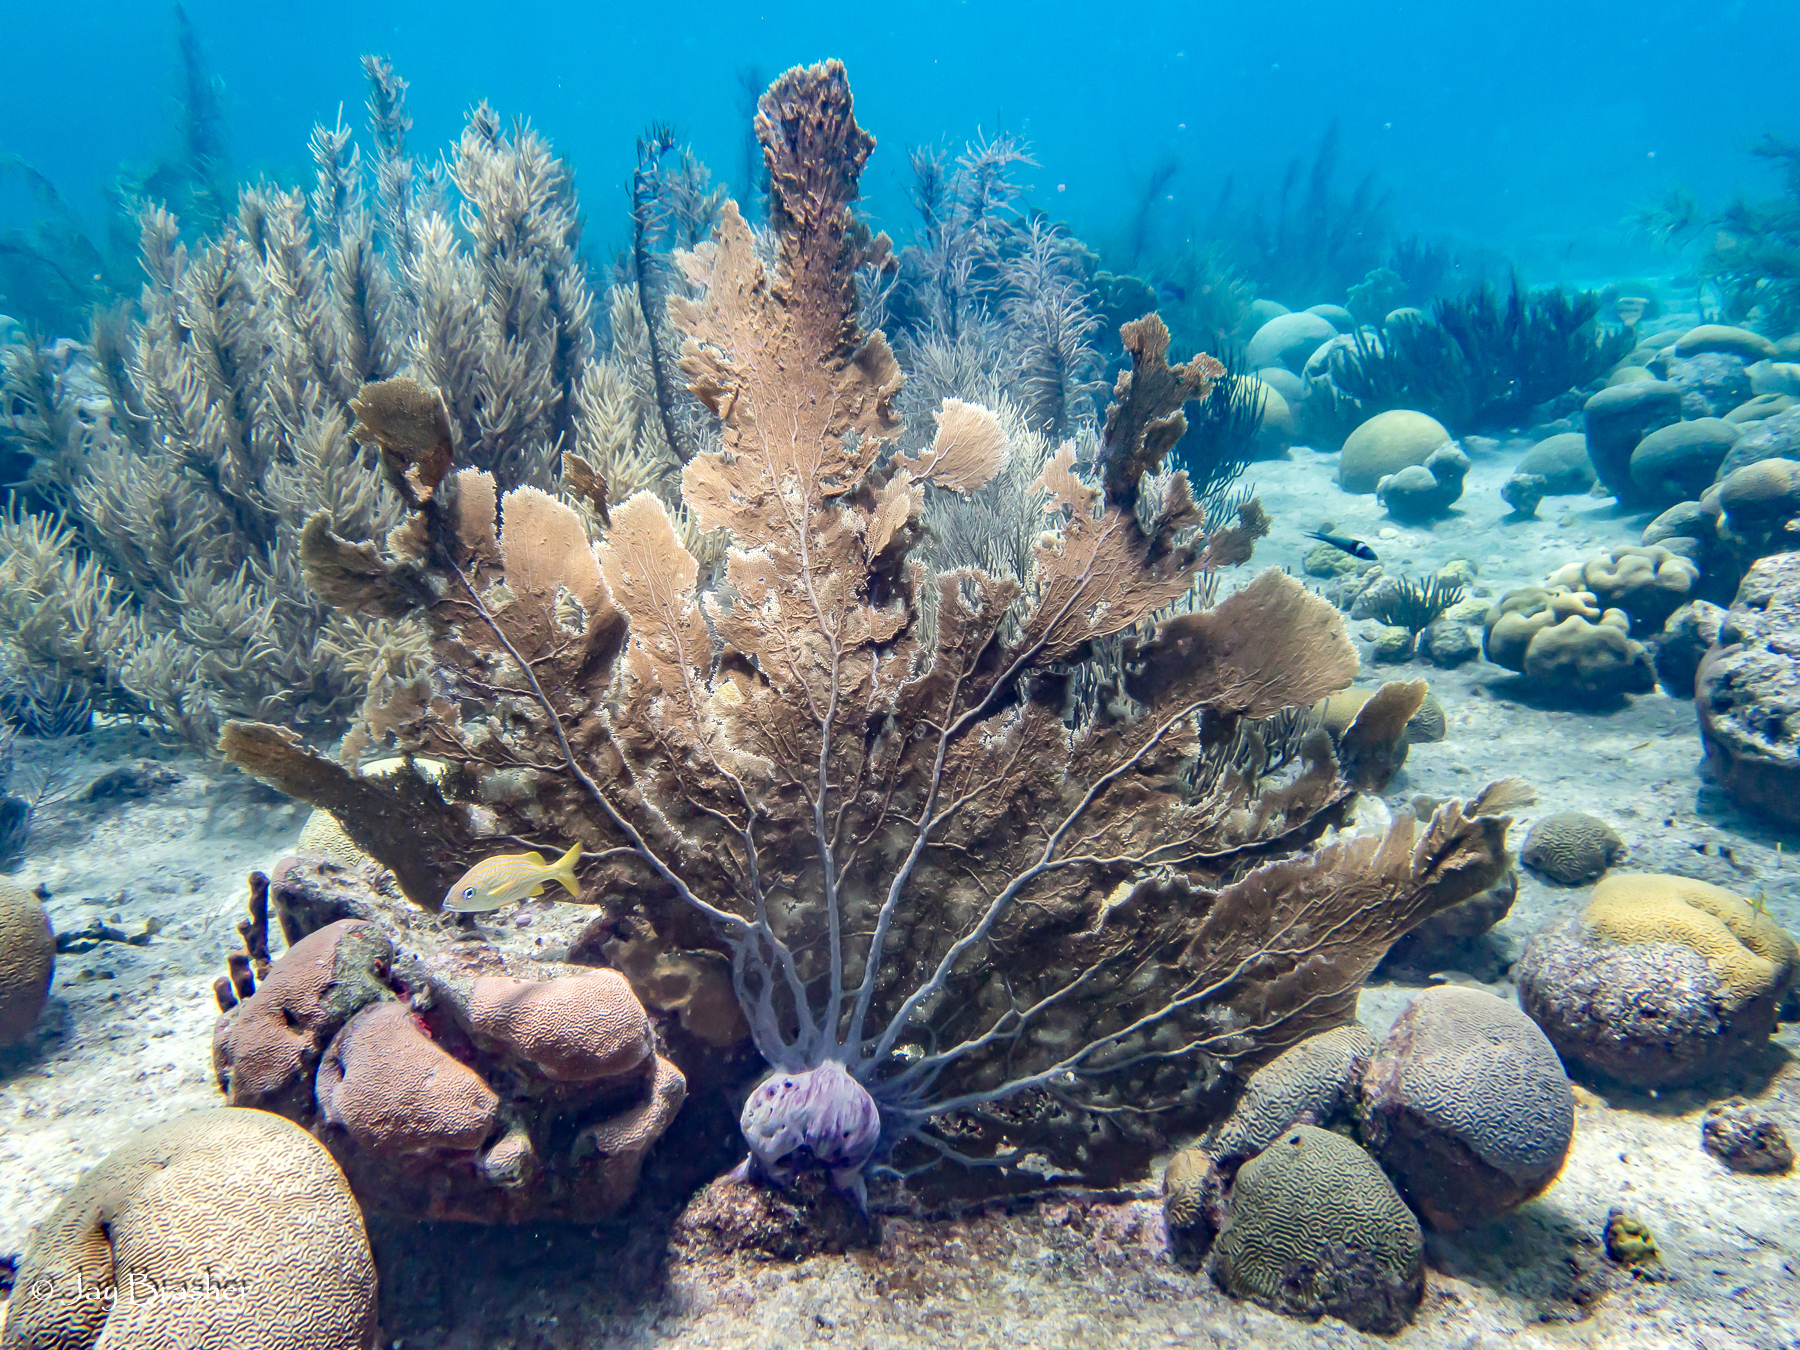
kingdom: Animalia
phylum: Cnidaria
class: Anthozoa
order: Malacalcyonacea
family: Gorgoniidae
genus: Gorgonia
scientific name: Gorgonia ventalina
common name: Common sea fan
